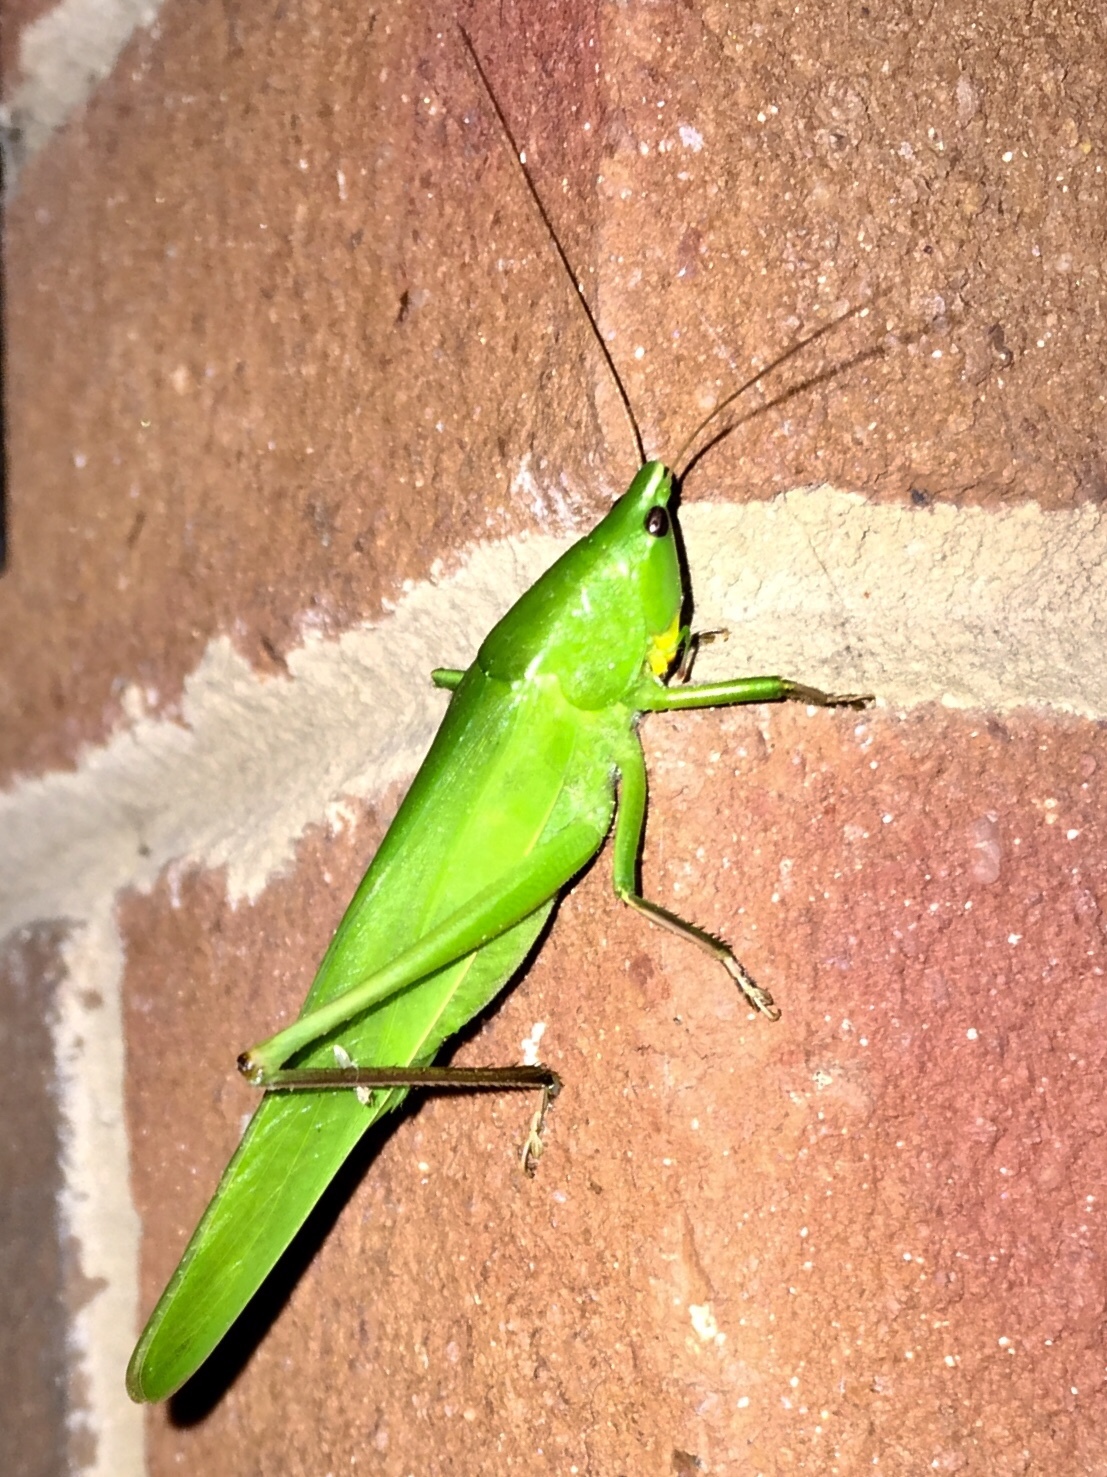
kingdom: Animalia
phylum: Arthropoda
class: Insecta
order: Orthoptera
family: Tettigoniidae
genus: Neoconocephalus
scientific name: Neoconocephalus triops
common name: Broad-tipped conehead
